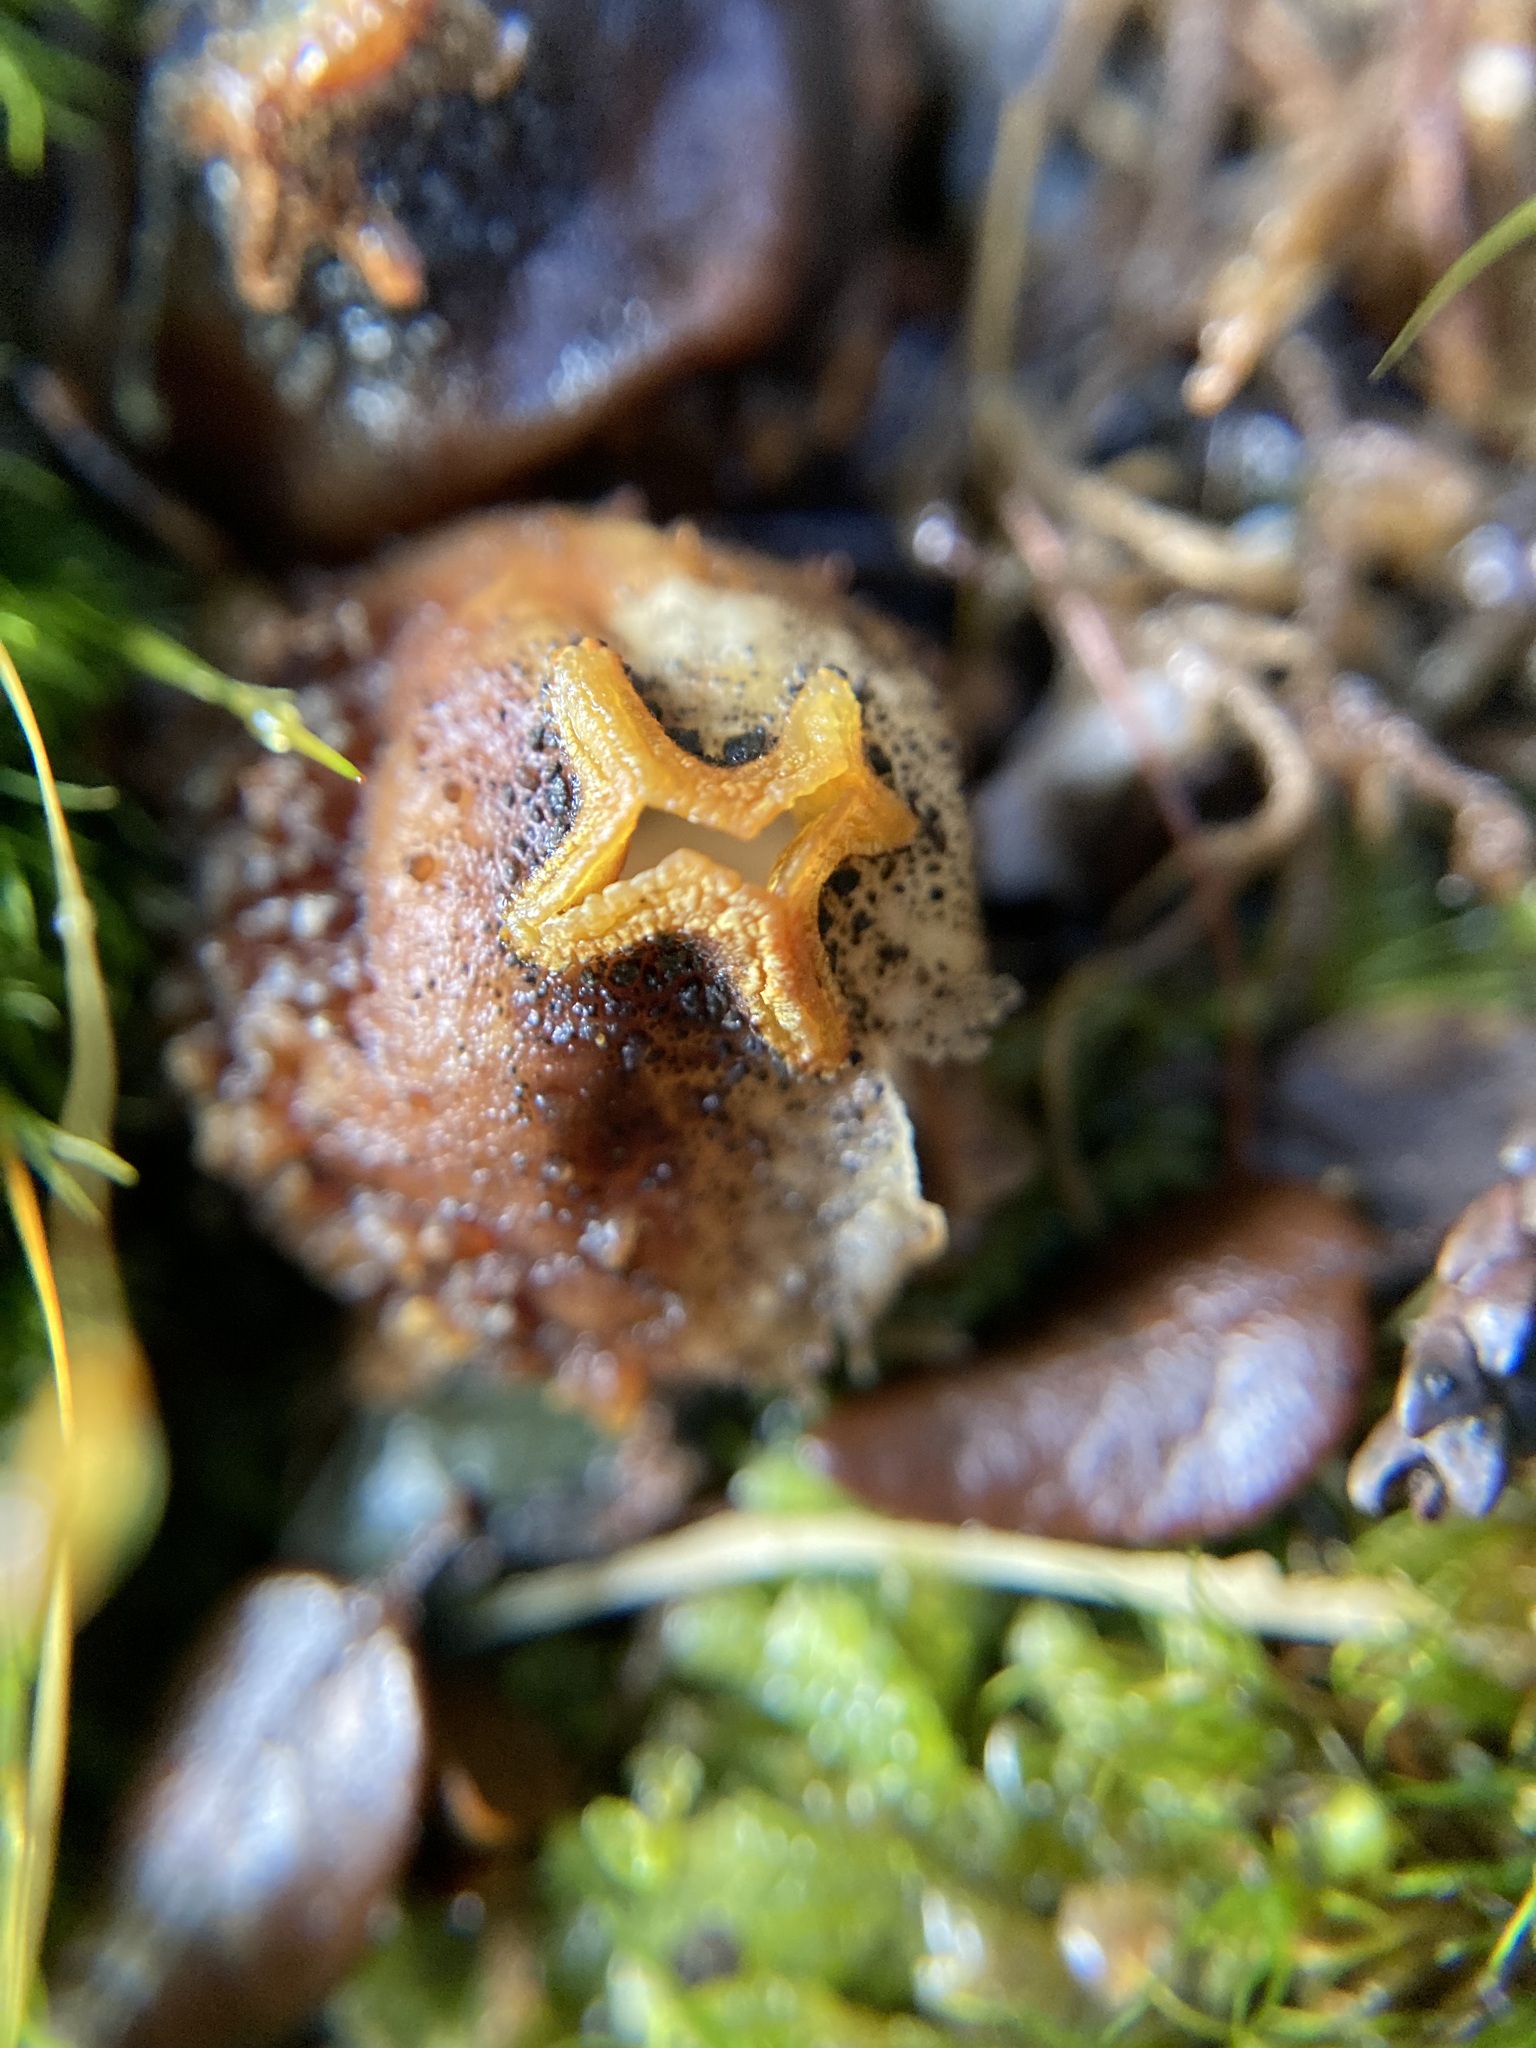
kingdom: Fungi
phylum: Basidiomycota
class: Agaricomycetes
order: Boletales
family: Calostomataceae
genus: Calostoma
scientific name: Calostoma rodwayi
